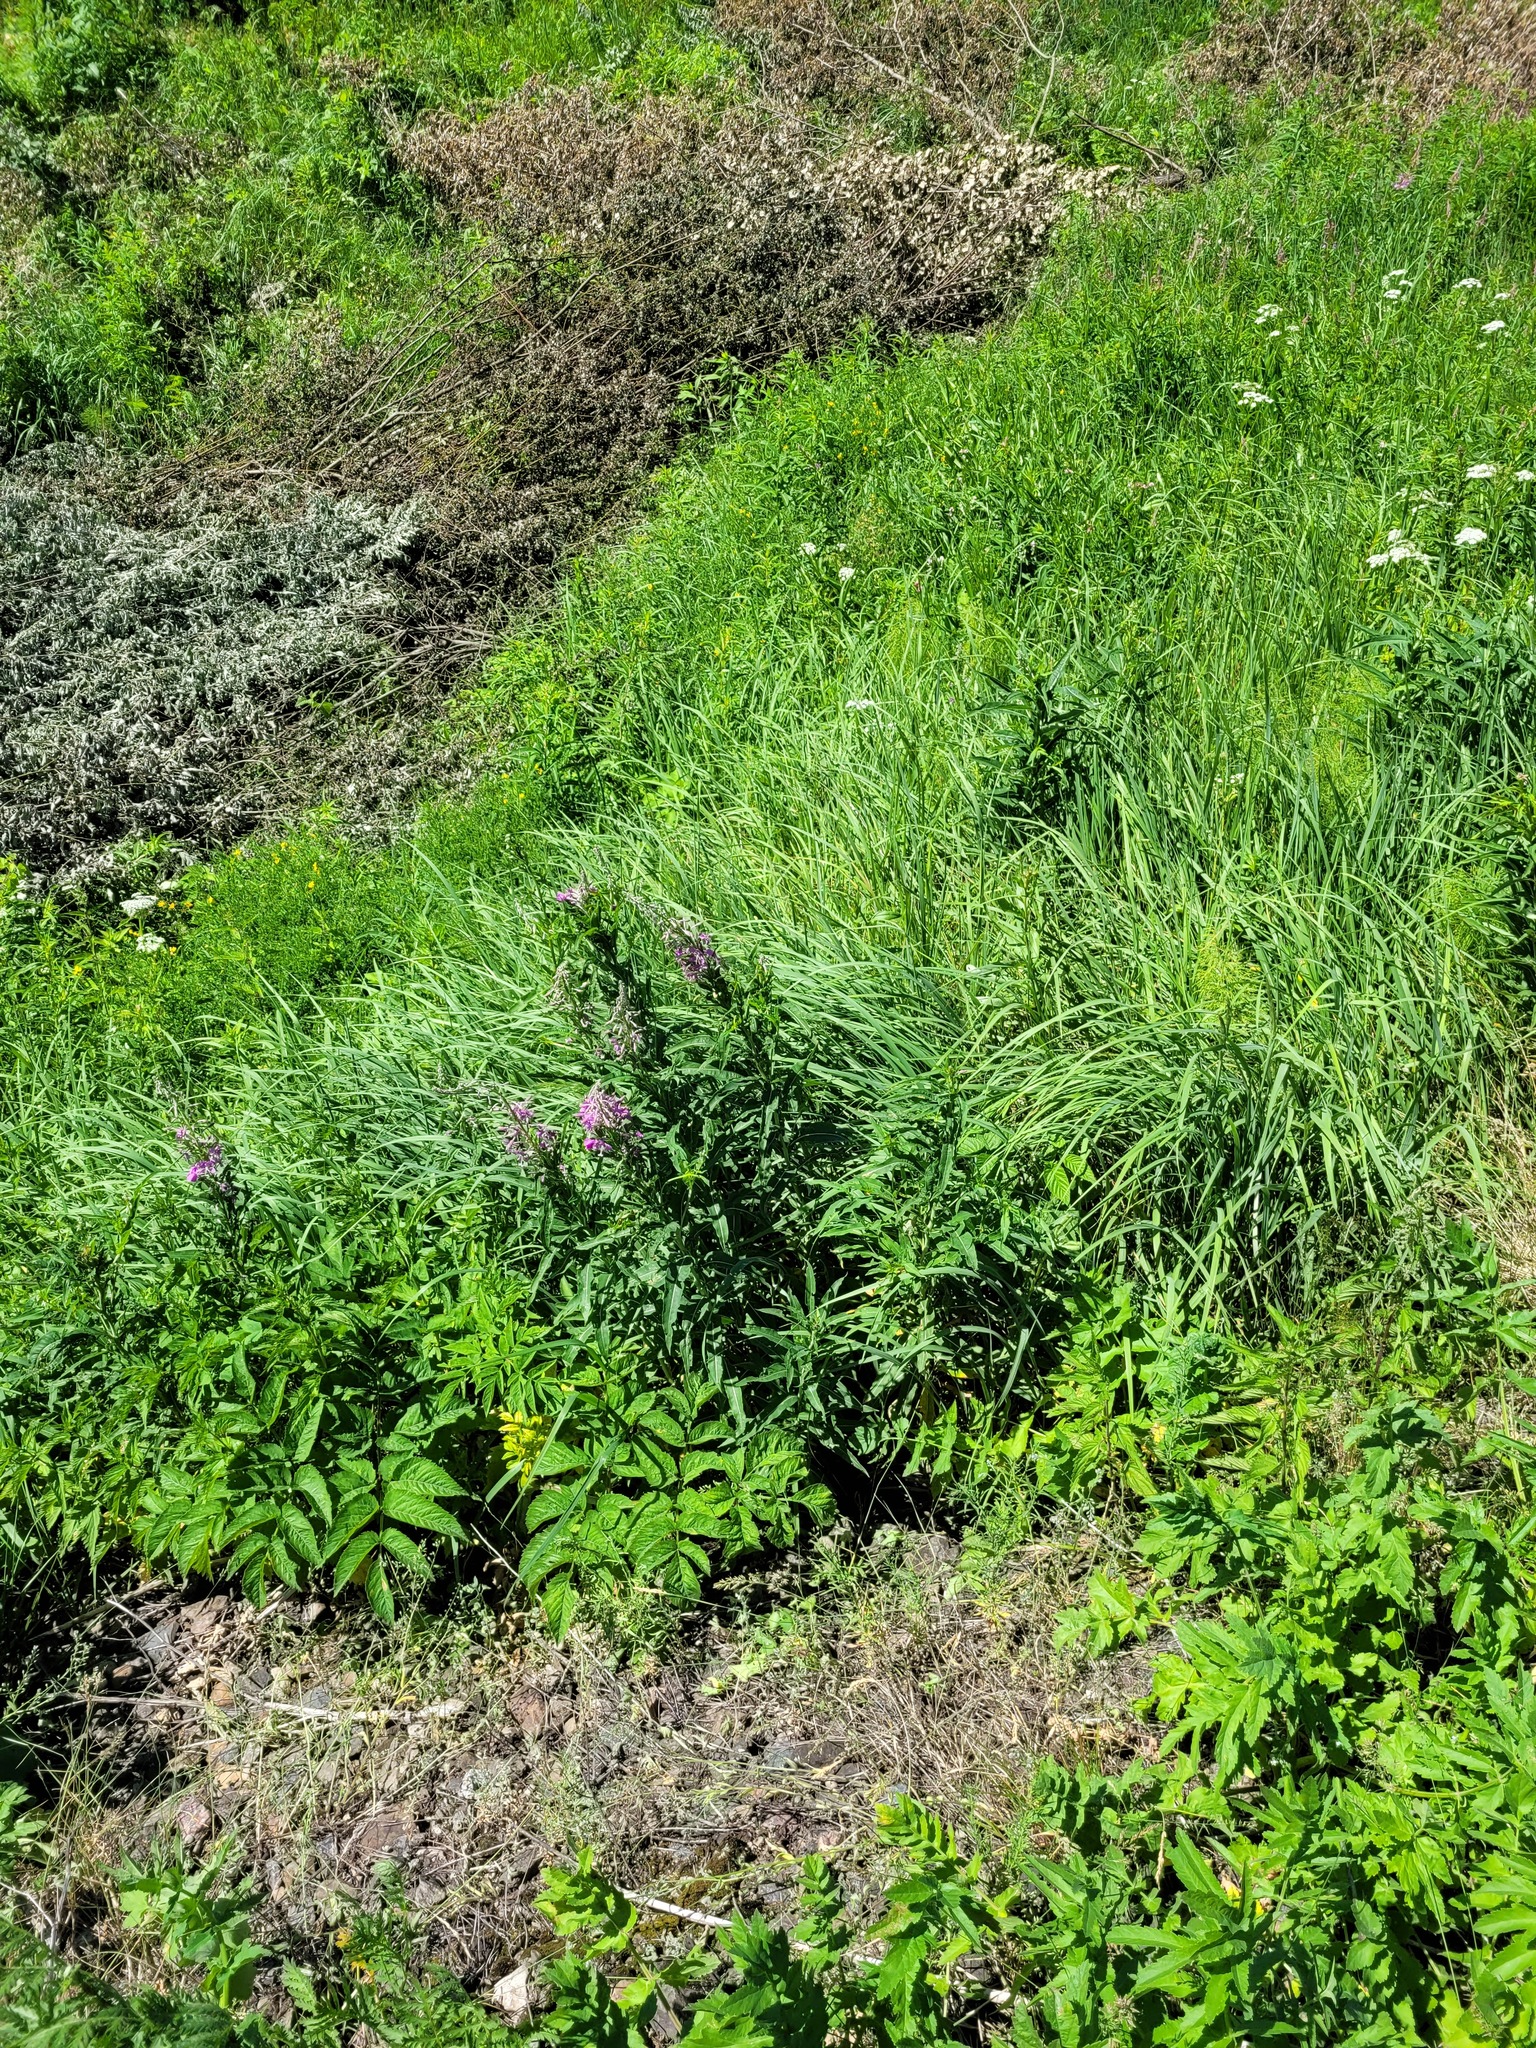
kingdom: Plantae
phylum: Tracheophyta
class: Magnoliopsida
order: Myrtales
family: Onagraceae
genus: Chamaenerion
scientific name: Chamaenerion angustifolium
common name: Fireweed
